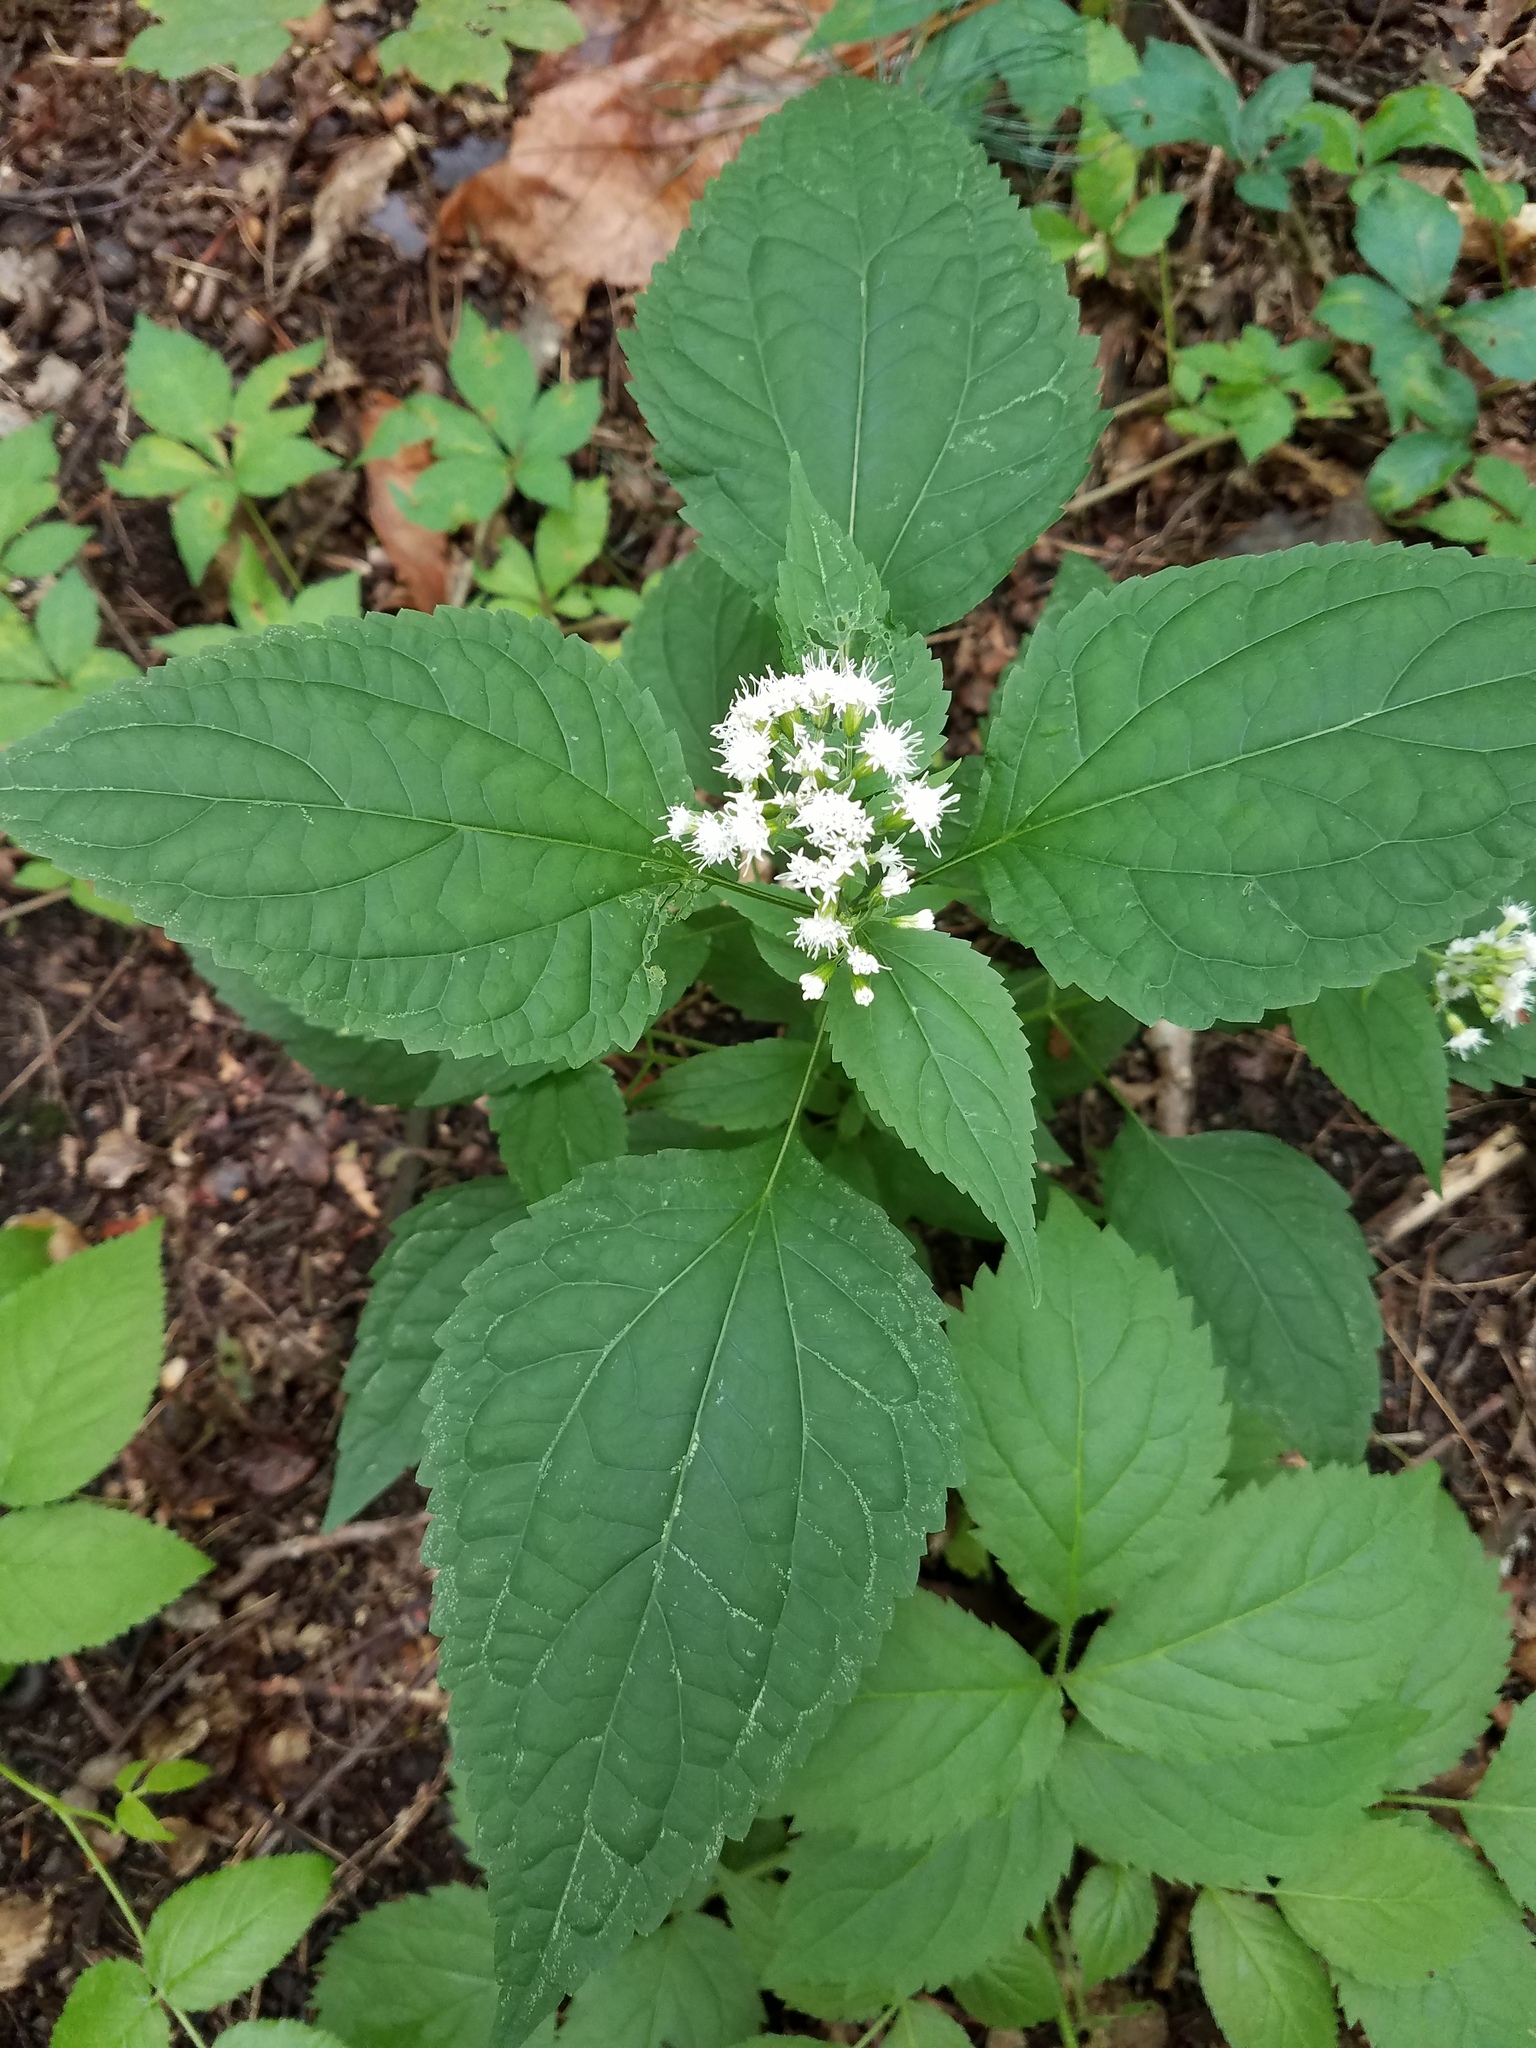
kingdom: Plantae
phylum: Tracheophyta
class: Magnoliopsida
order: Asterales
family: Asteraceae
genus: Ageratina
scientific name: Ageratina altissima
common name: White snakeroot
